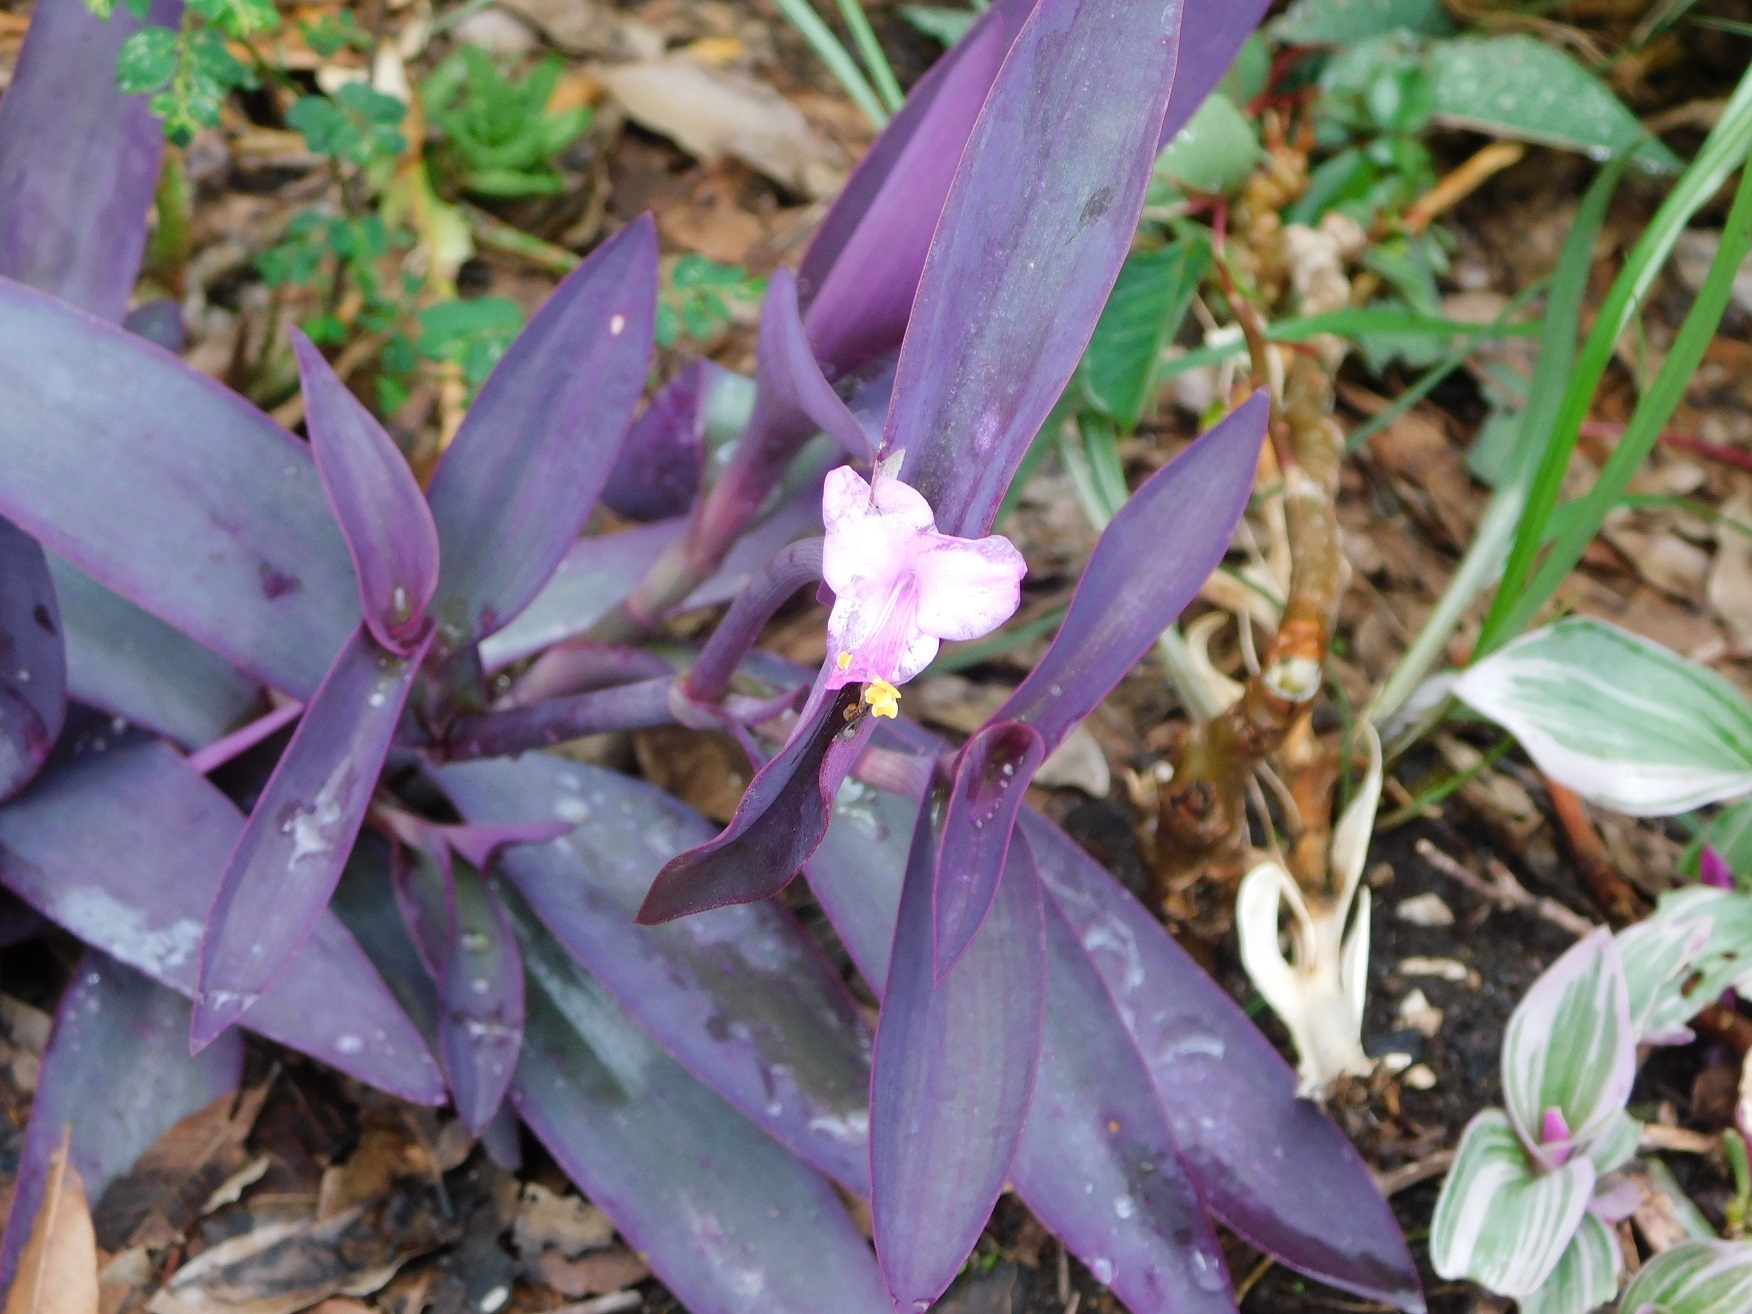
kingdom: Plantae
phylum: Tracheophyta
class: Liliopsida
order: Commelinales
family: Commelinaceae
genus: Tradescantia
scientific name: Tradescantia pallida
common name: Purpleheart
